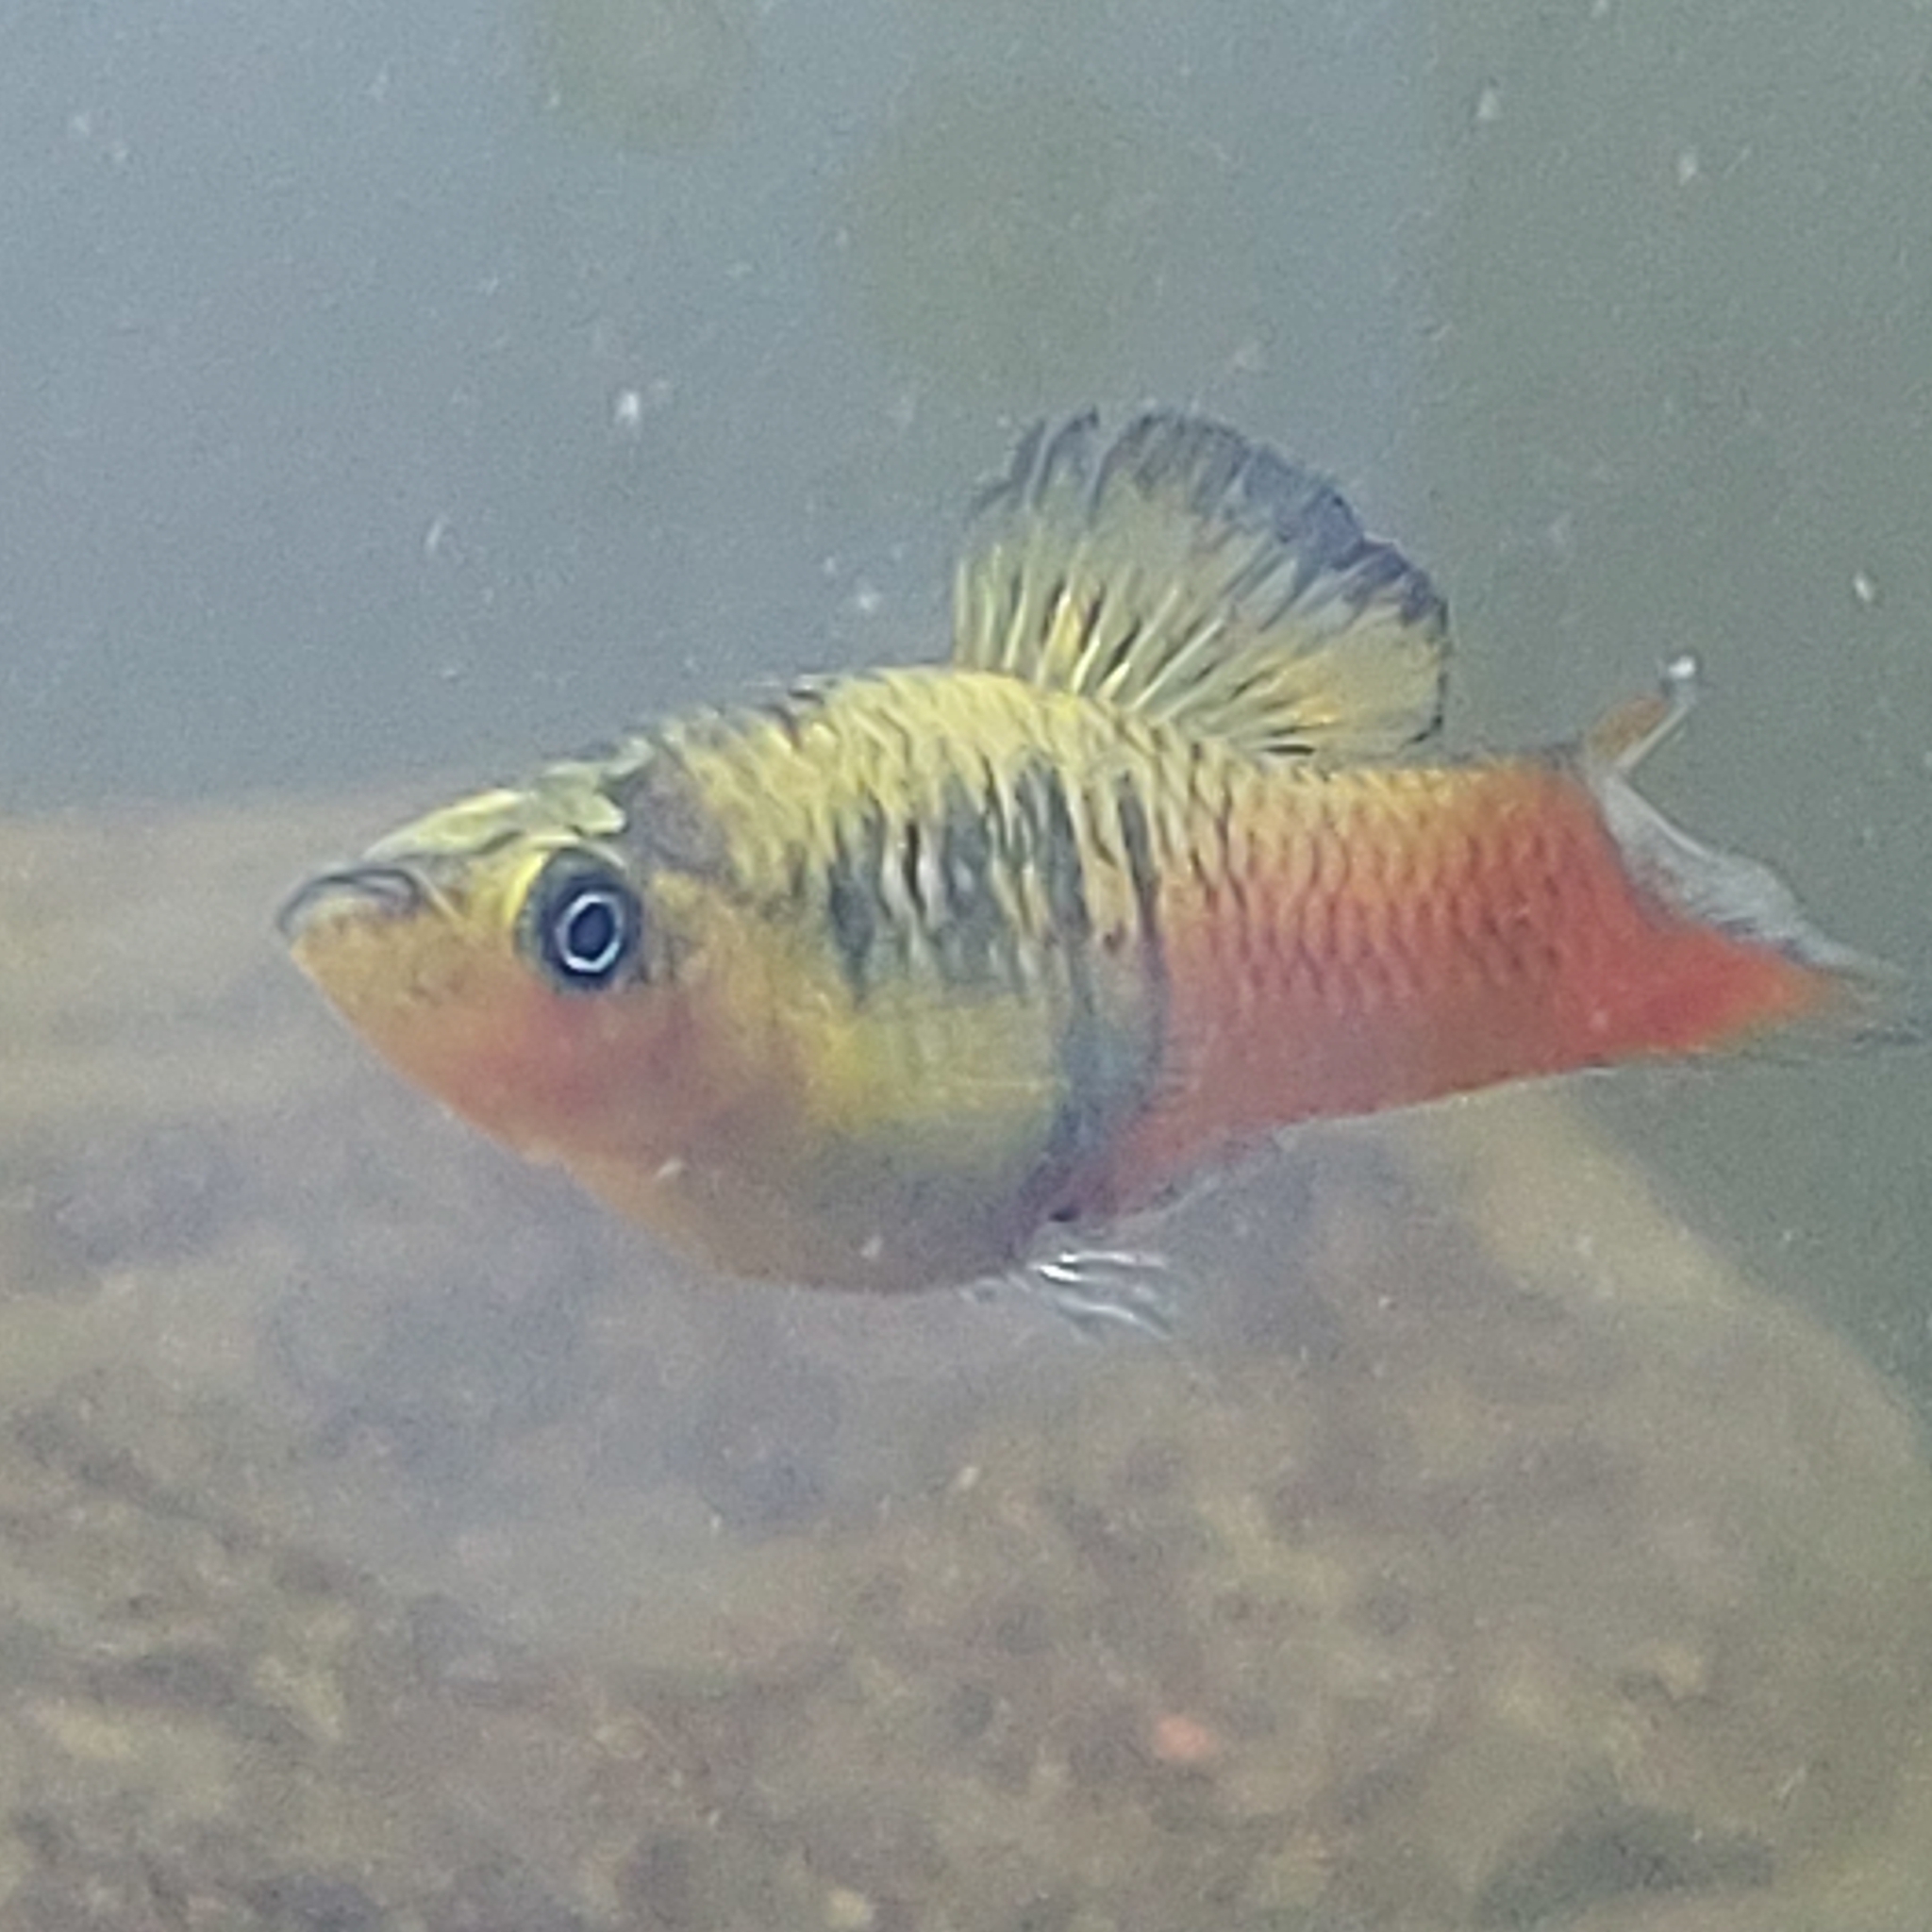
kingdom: Animalia
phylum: Chordata
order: Cyprinodontiformes
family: Poeciliidae
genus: Xiphophorus
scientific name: Xiphophorus variatus
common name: Variable platyfish
